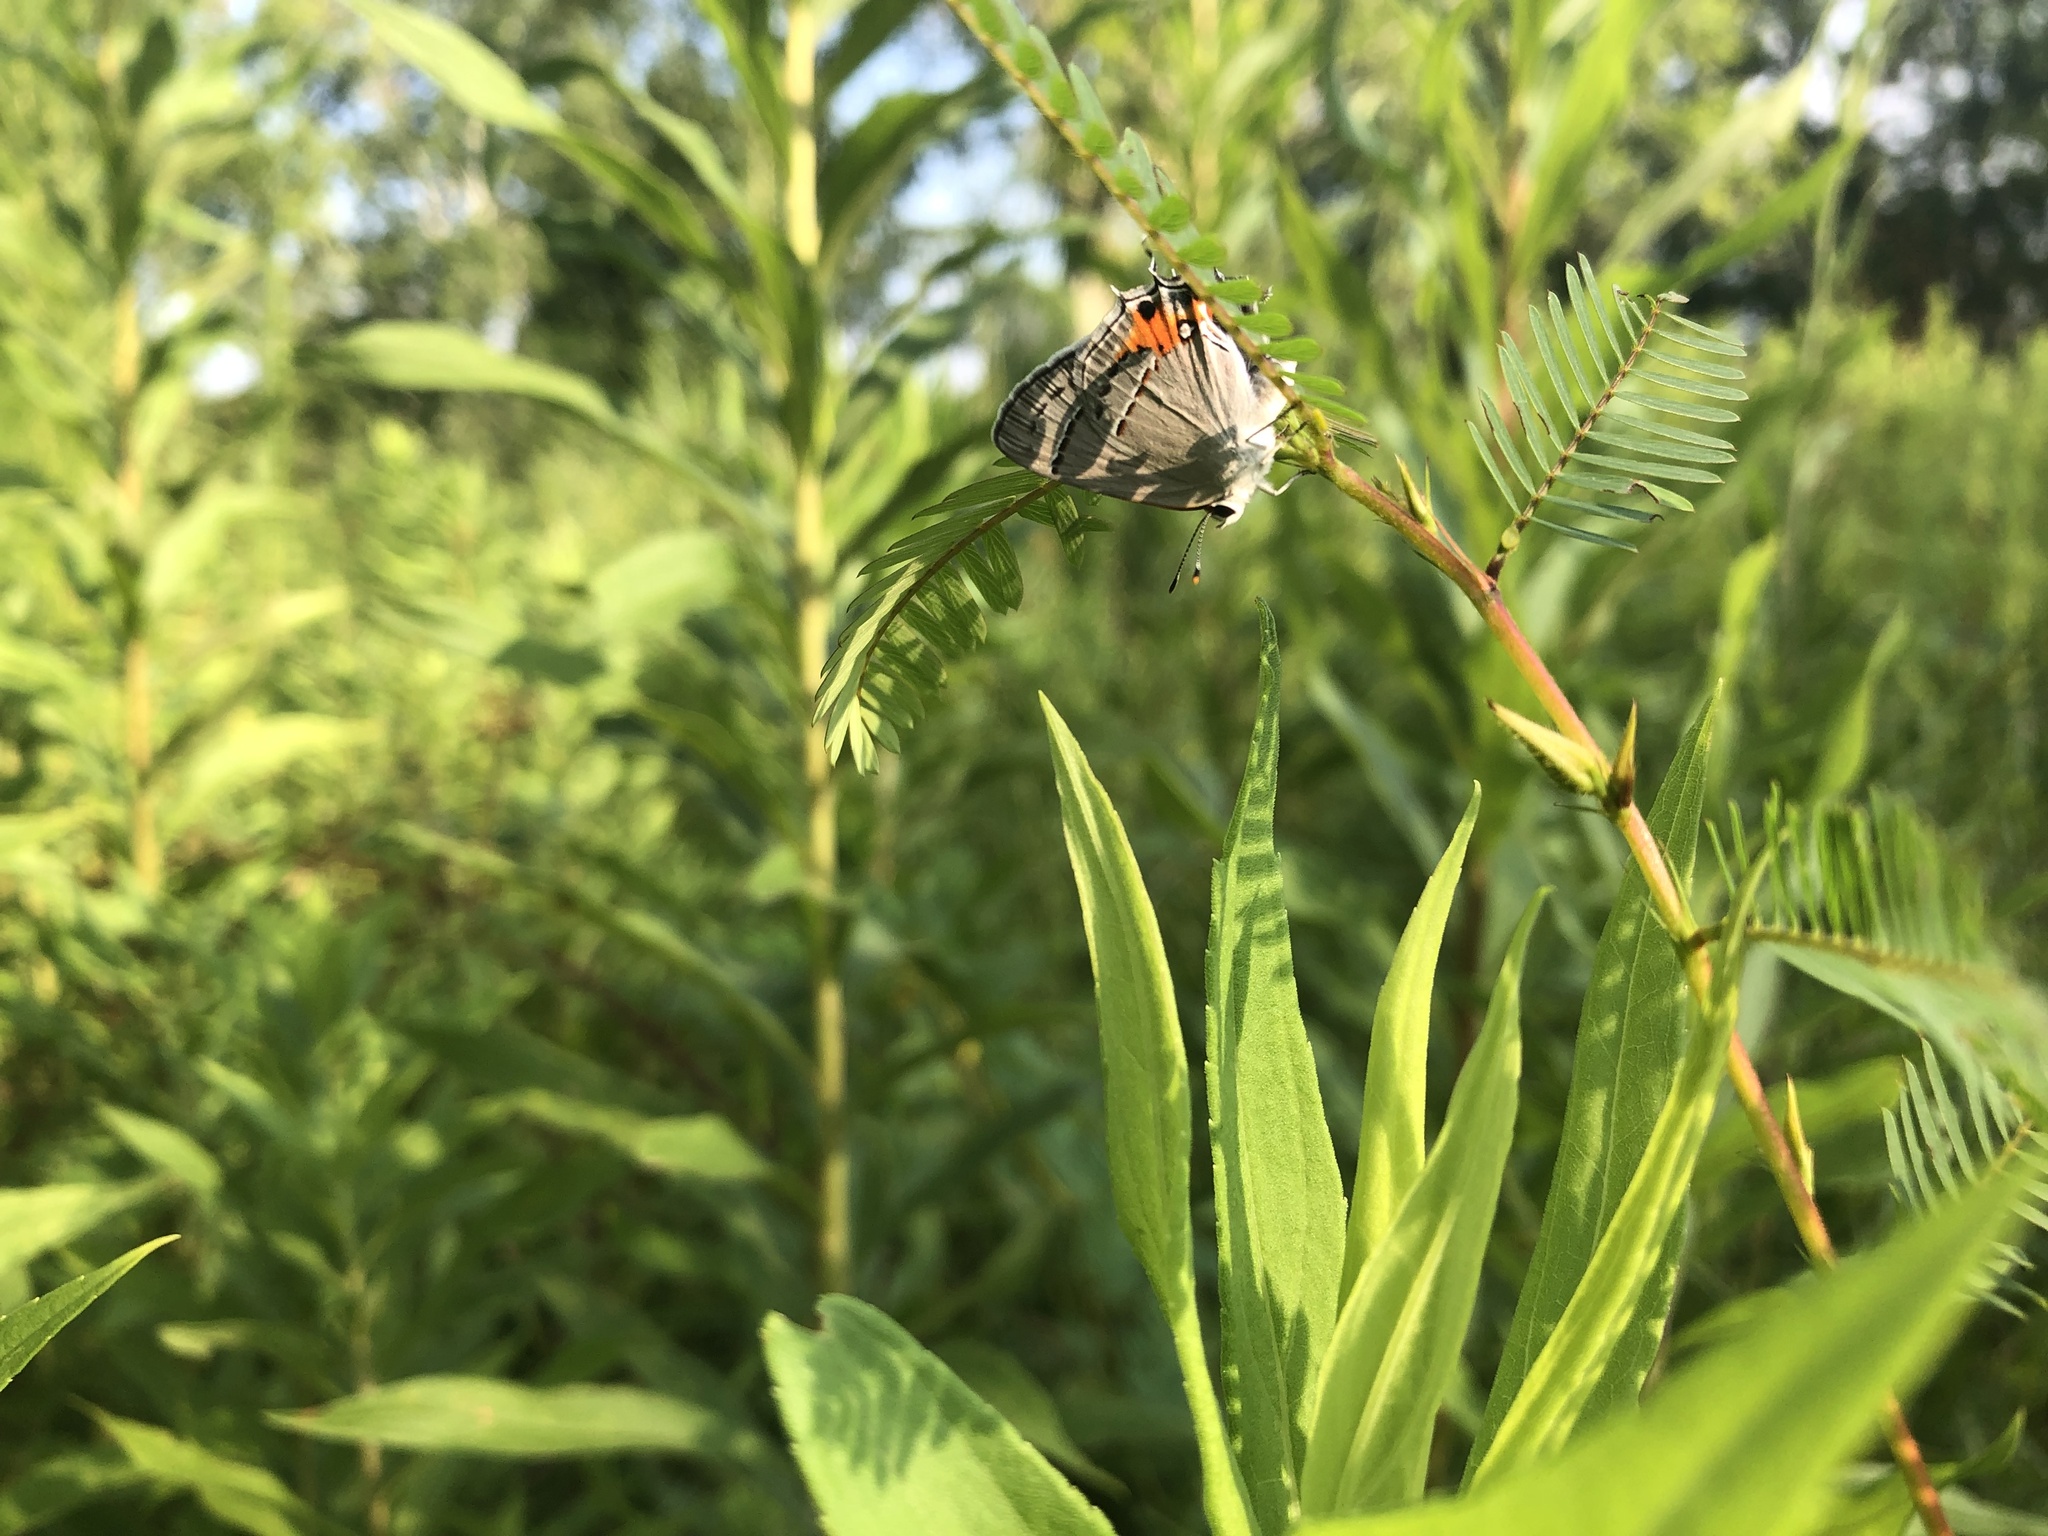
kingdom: Animalia
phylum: Arthropoda
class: Insecta
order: Lepidoptera
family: Lycaenidae
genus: Strymon
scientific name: Strymon melinus
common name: Gray hairstreak
